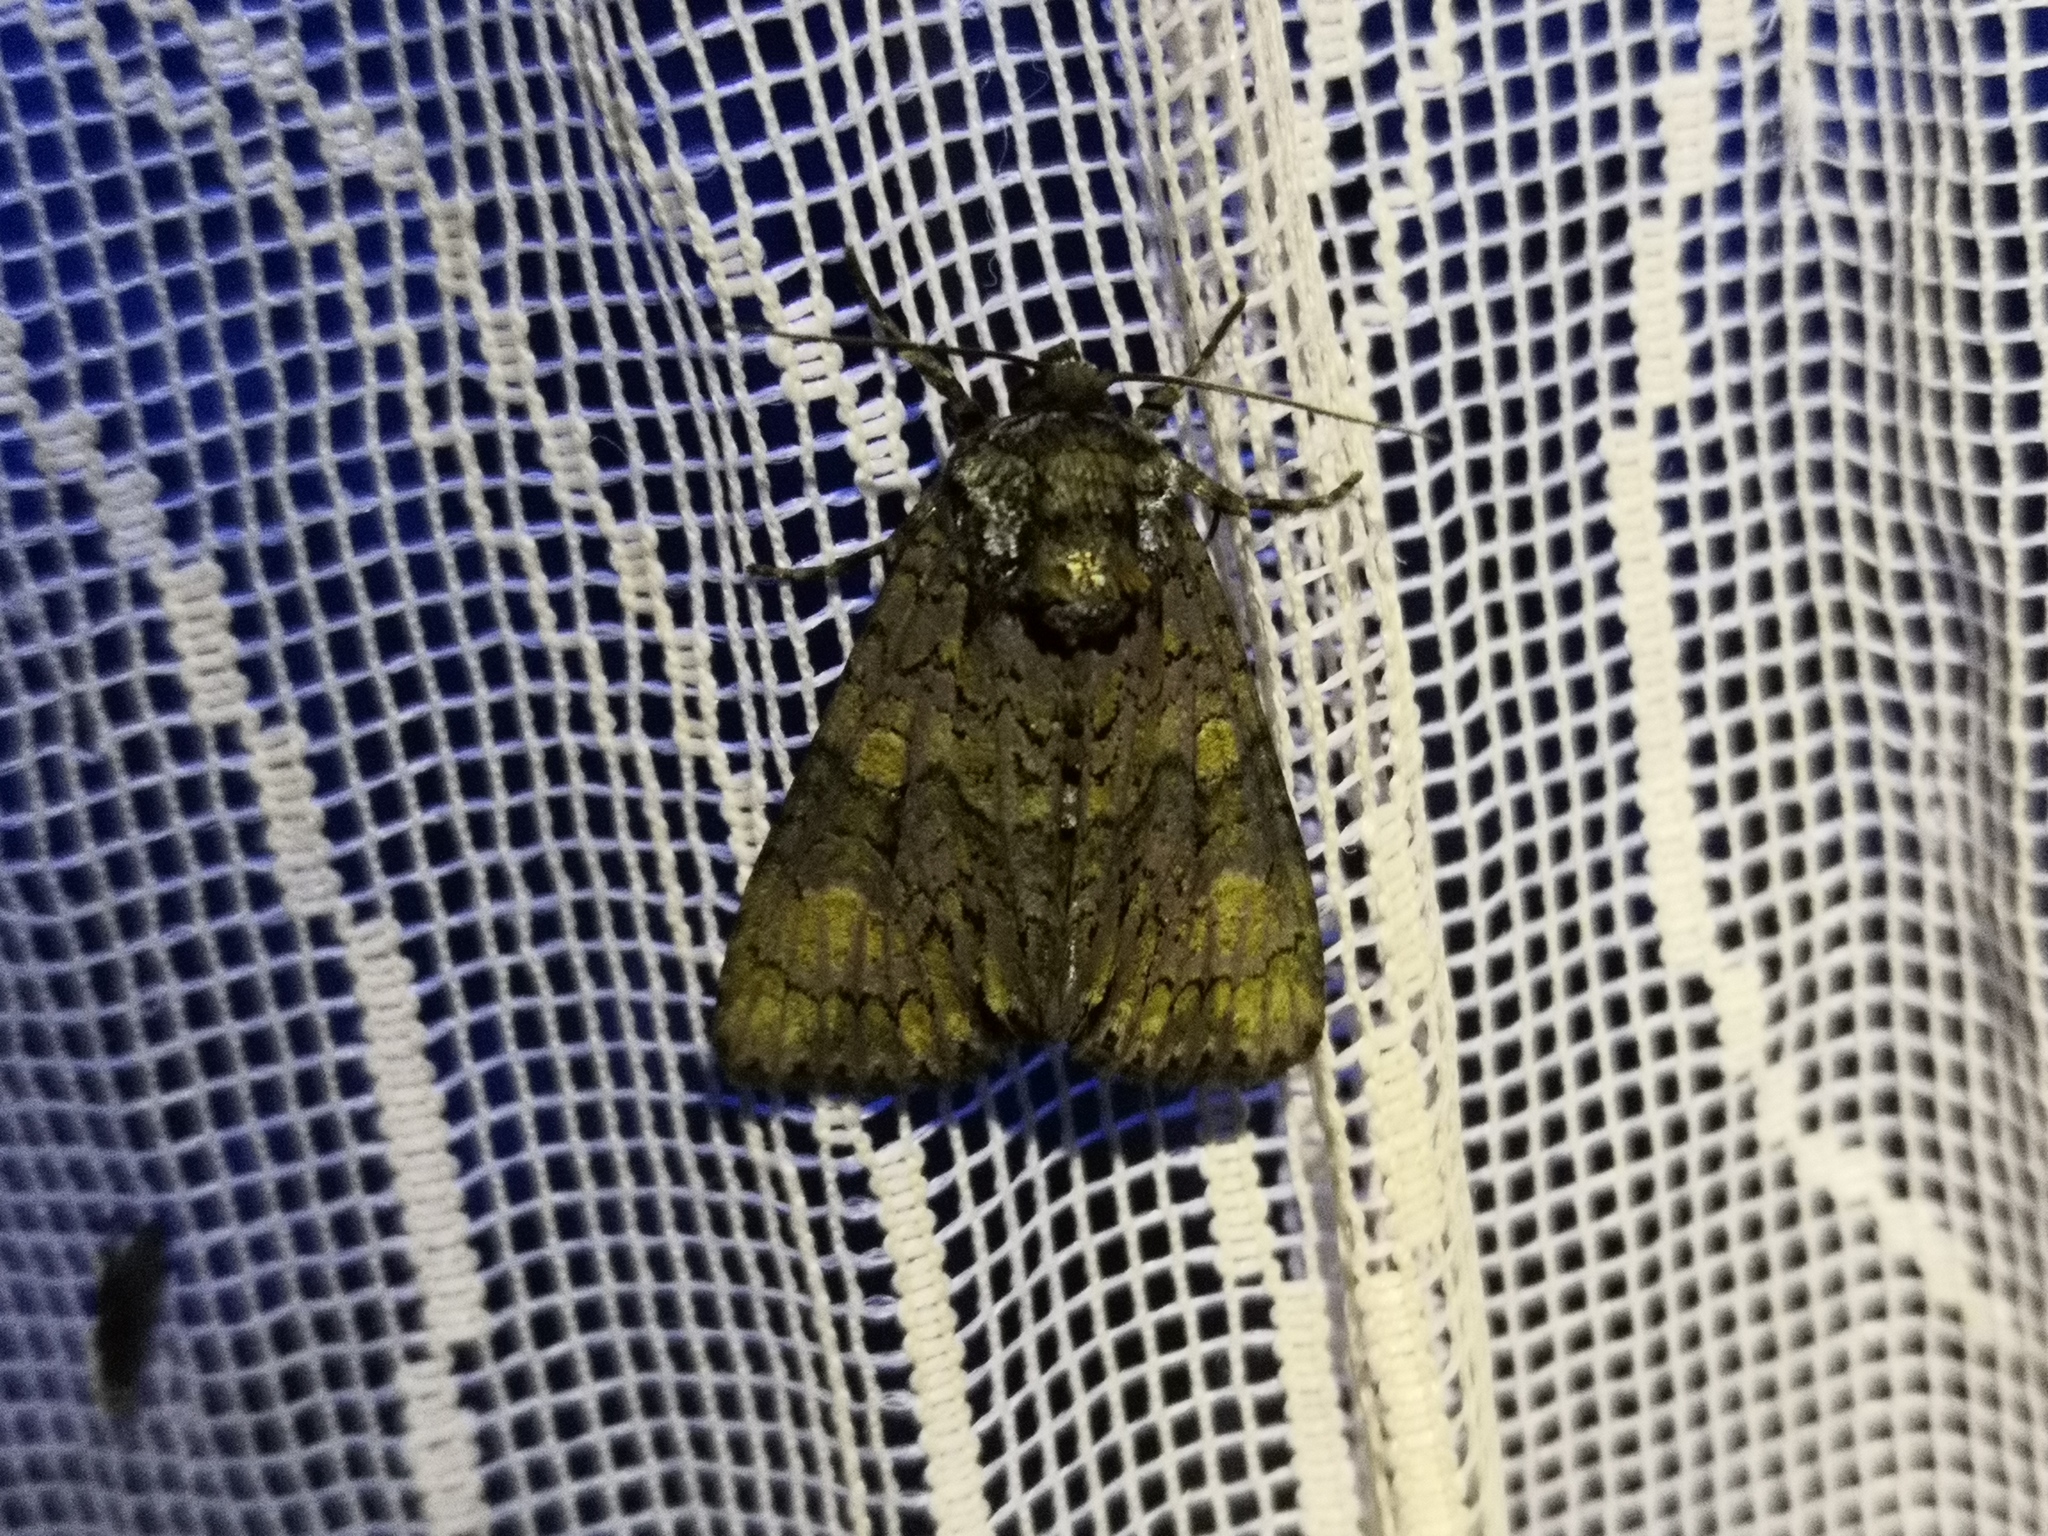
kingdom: Animalia
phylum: Arthropoda
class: Insecta
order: Lepidoptera
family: Noctuidae
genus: Craniophora
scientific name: Craniophora ligustri
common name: Coronet
